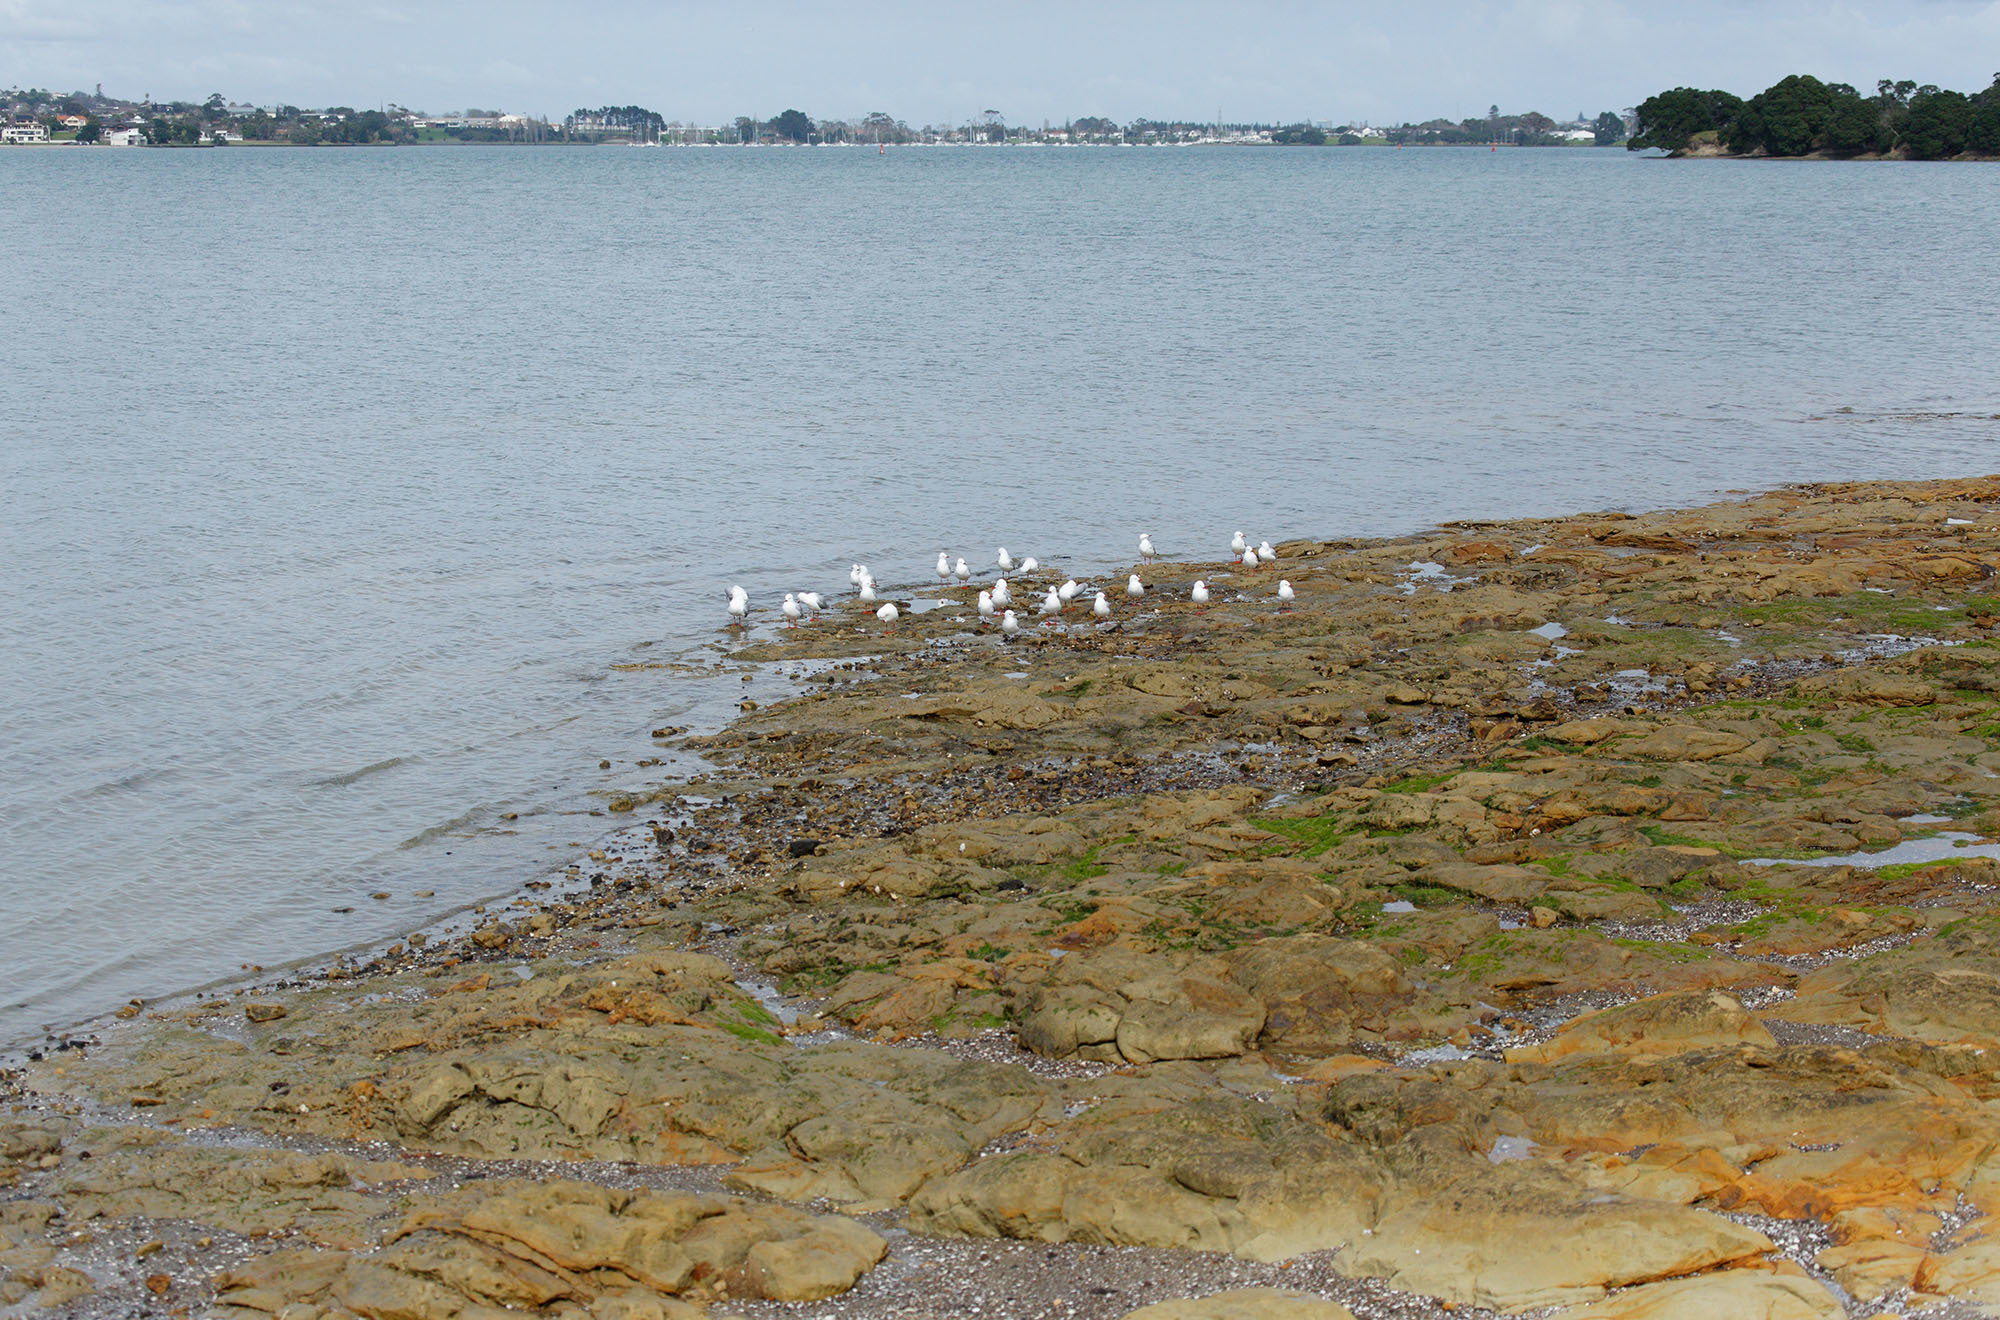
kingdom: Animalia
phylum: Chordata
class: Aves
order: Charadriiformes
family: Laridae
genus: Chroicocephalus
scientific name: Chroicocephalus novaehollandiae
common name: Silver gull
